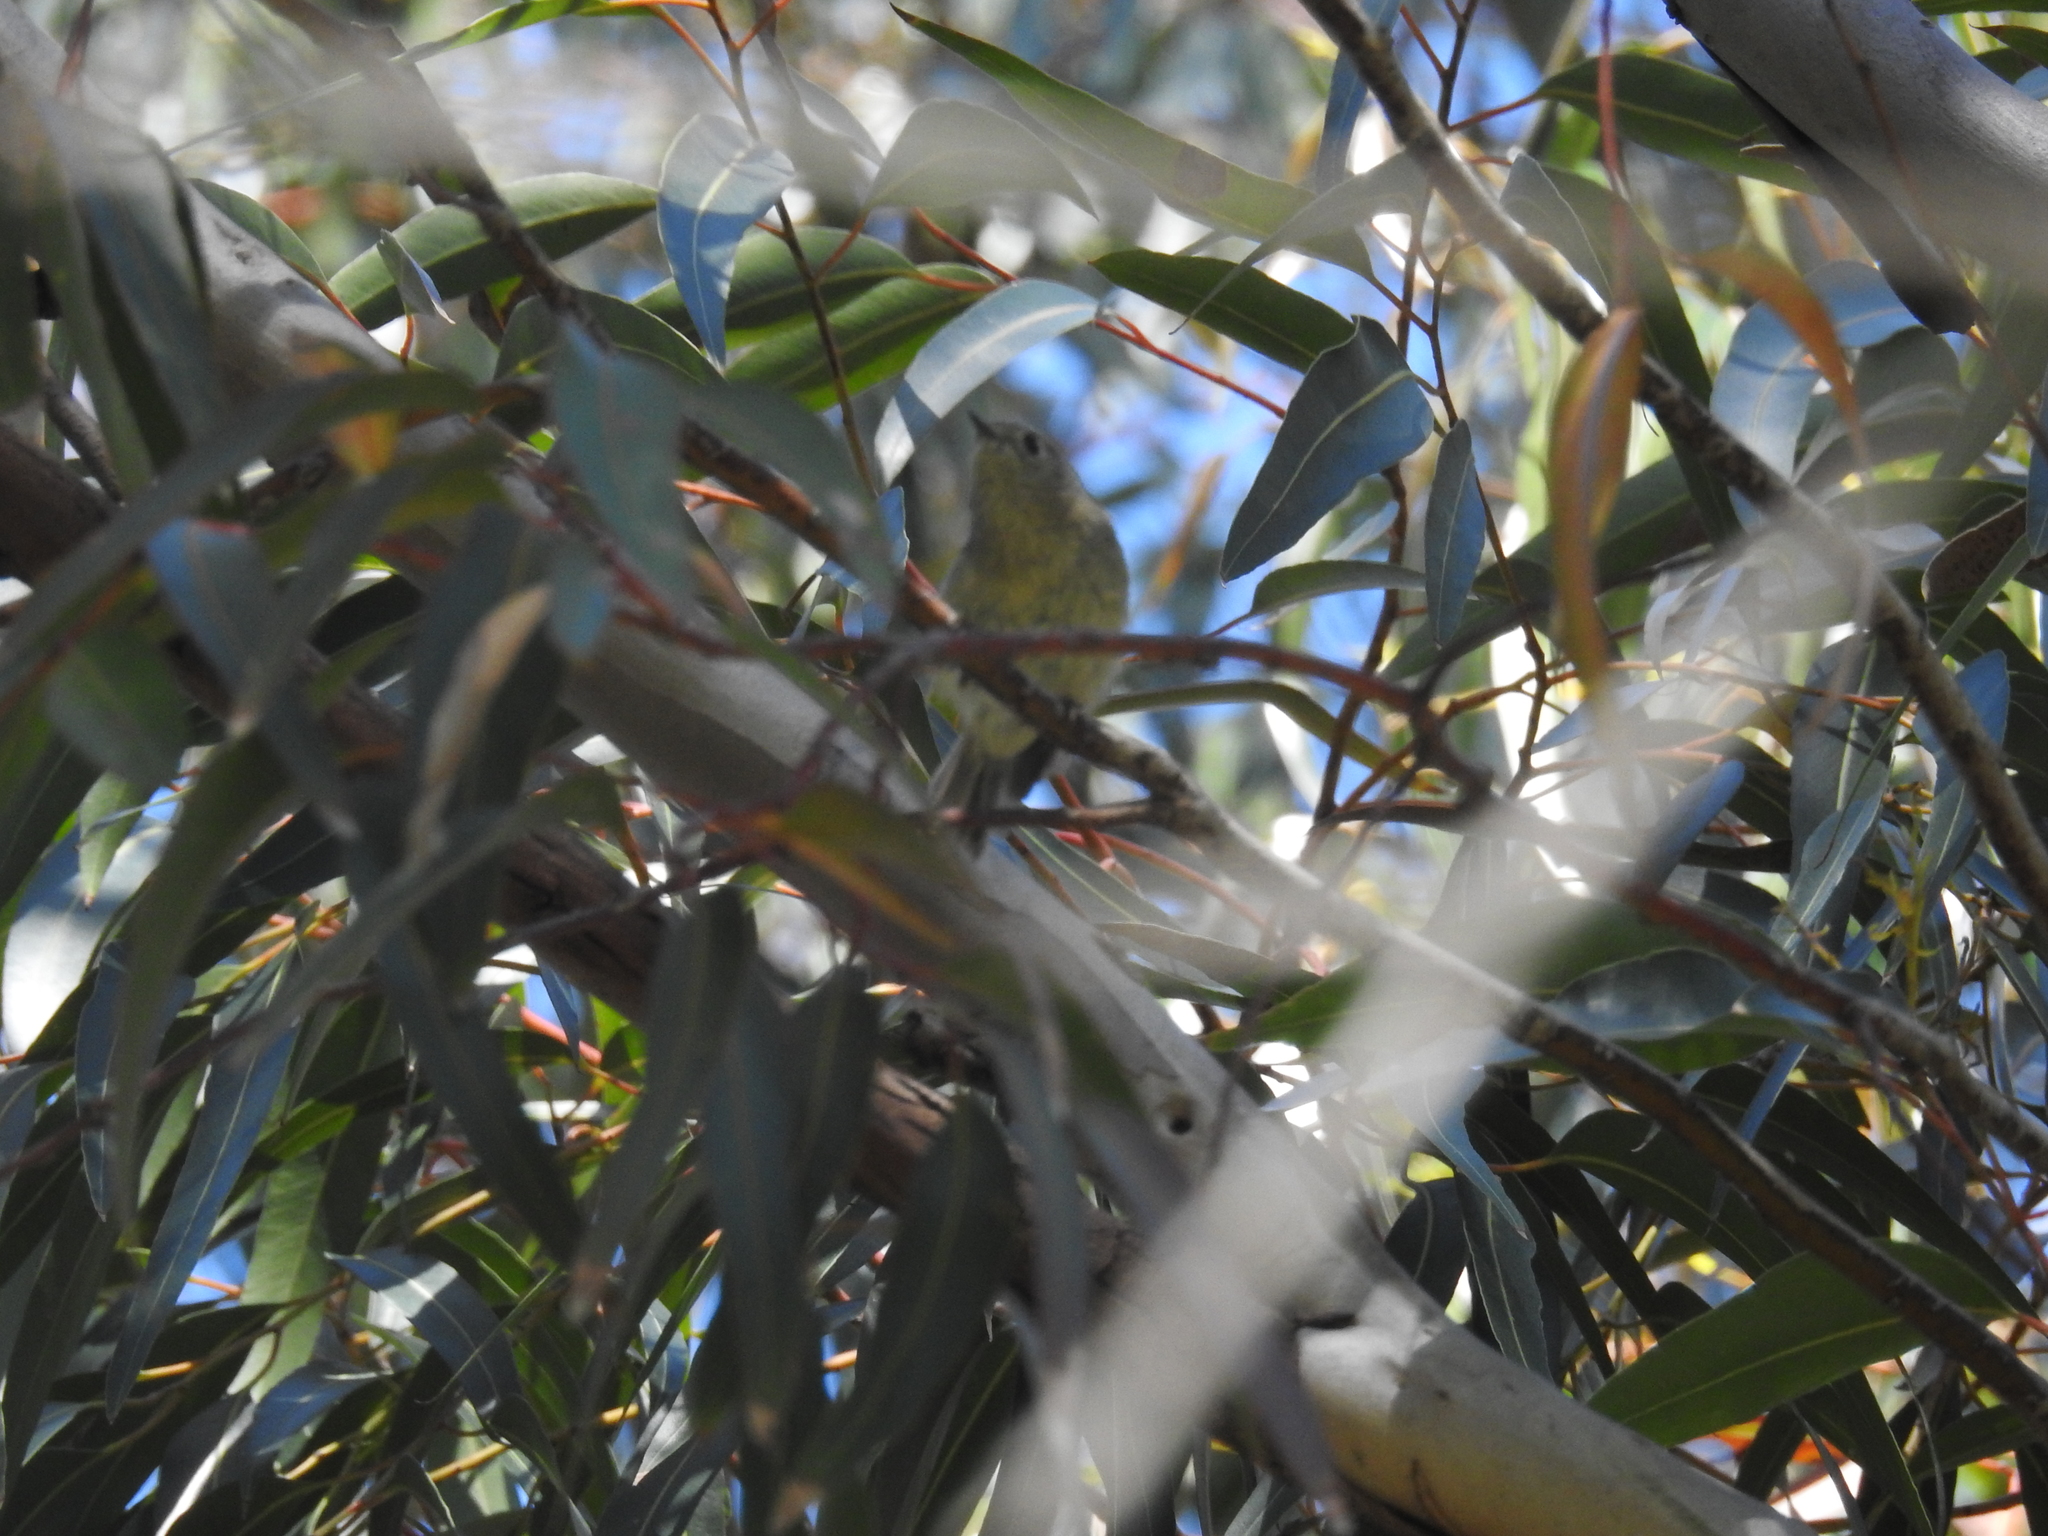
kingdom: Animalia
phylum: Chordata
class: Aves
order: Passeriformes
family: Regulidae
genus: Regulus
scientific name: Regulus calendula
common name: Ruby-crowned kinglet
